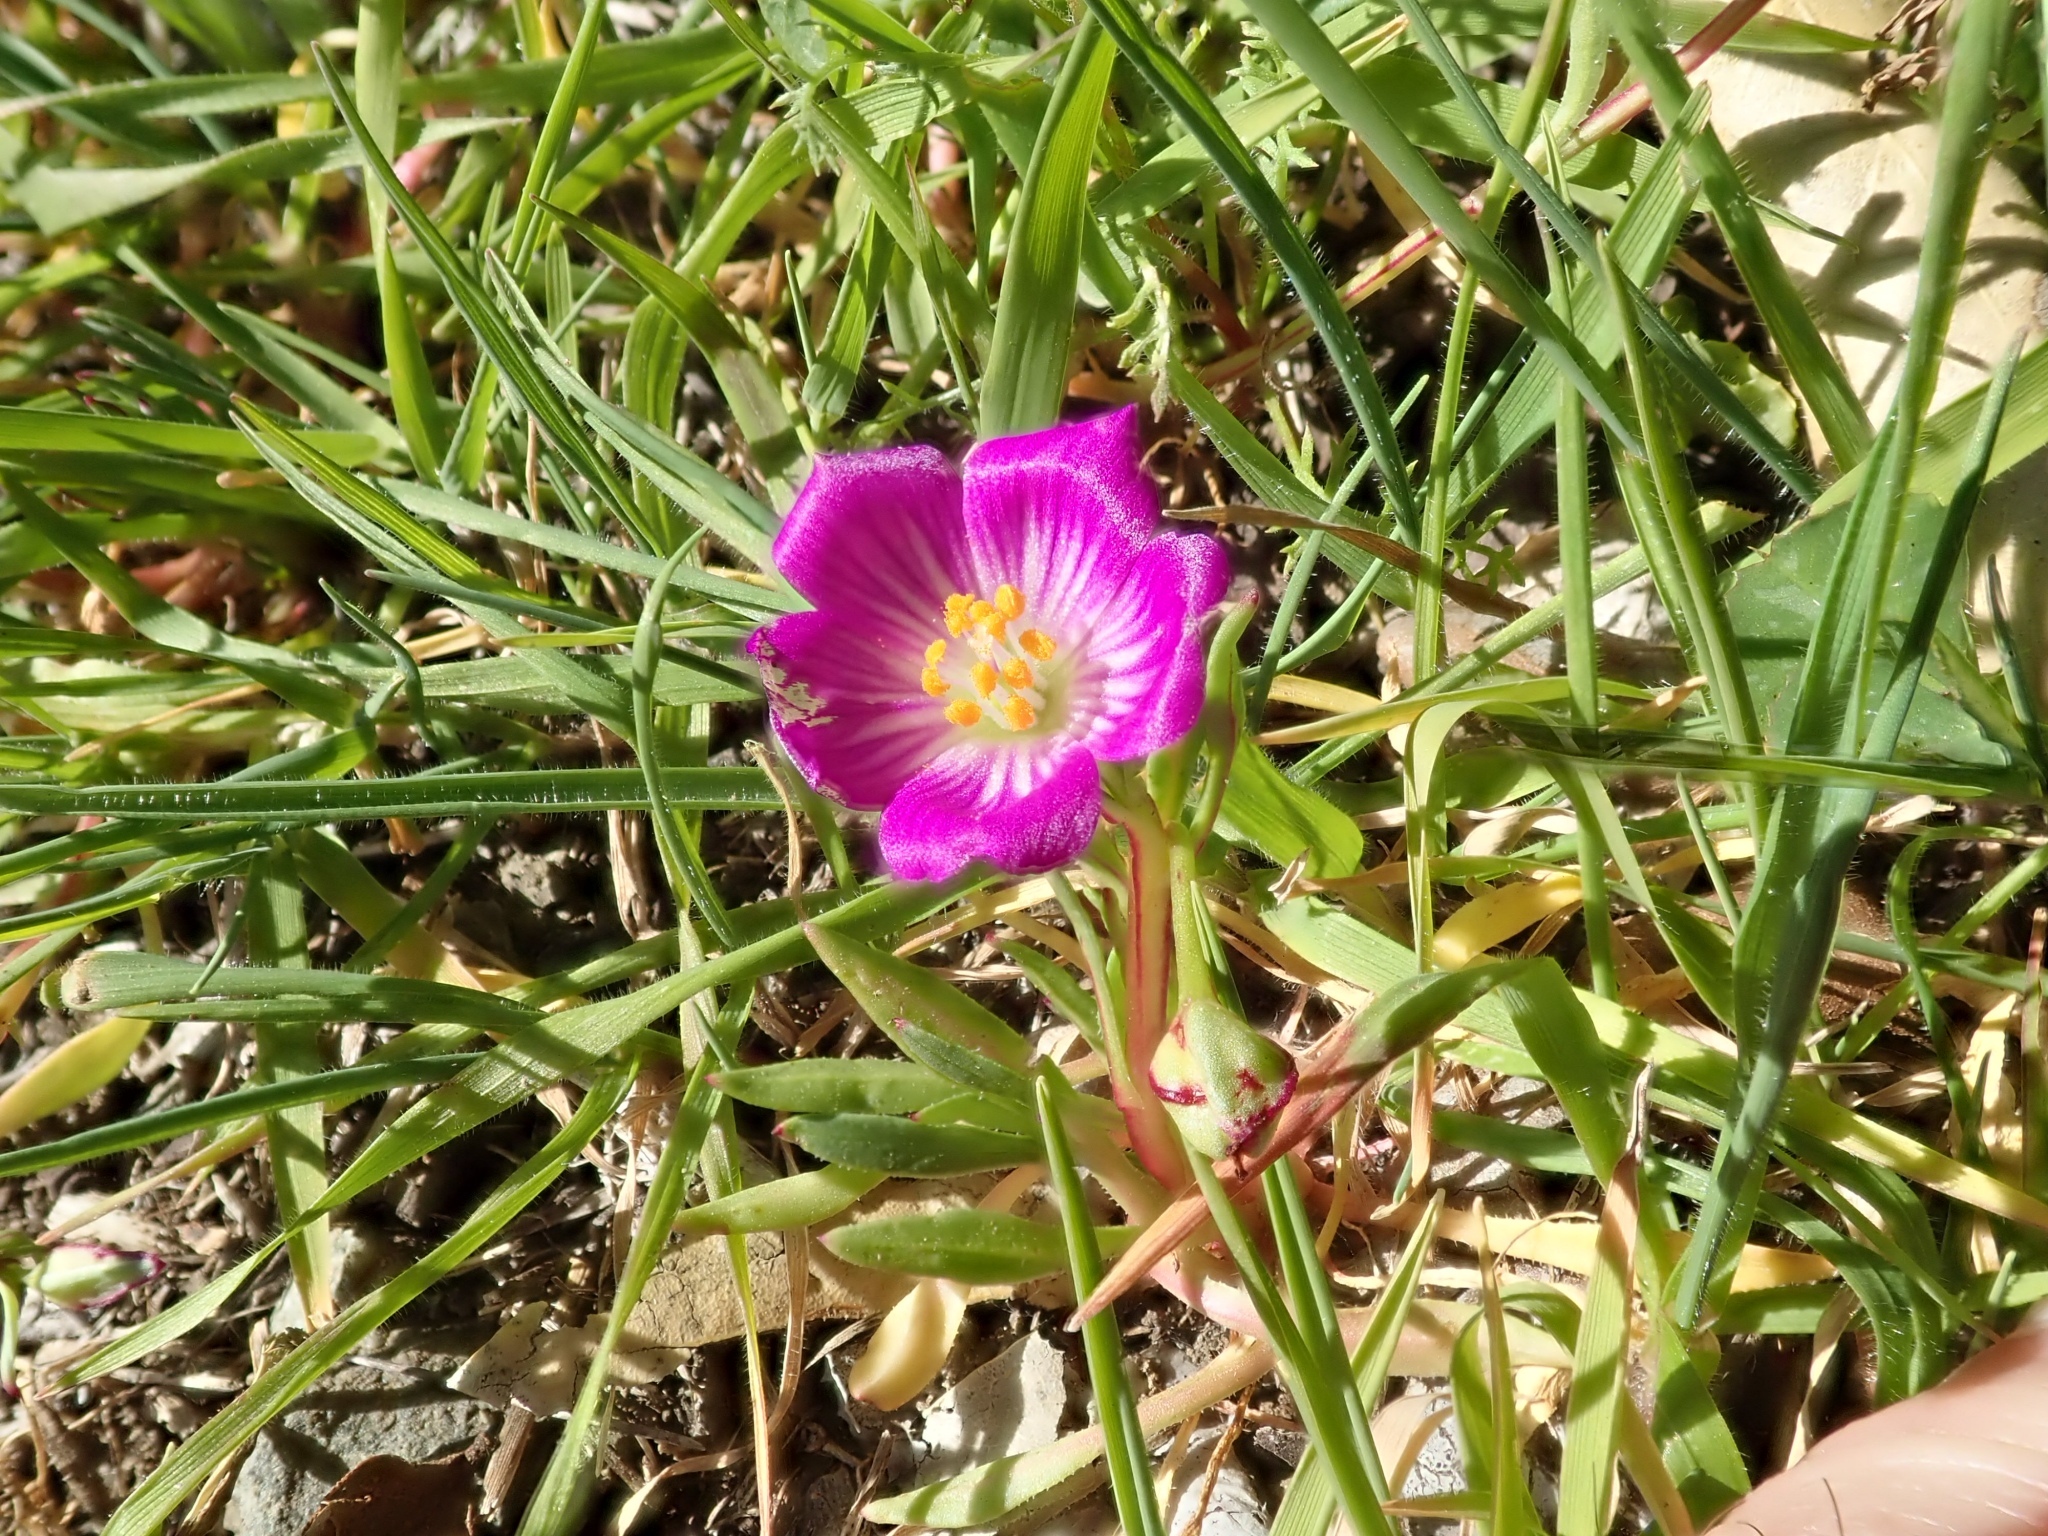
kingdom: Plantae
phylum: Tracheophyta
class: Magnoliopsida
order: Caryophyllales
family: Montiaceae
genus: Calandrinia
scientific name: Calandrinia menziesii
